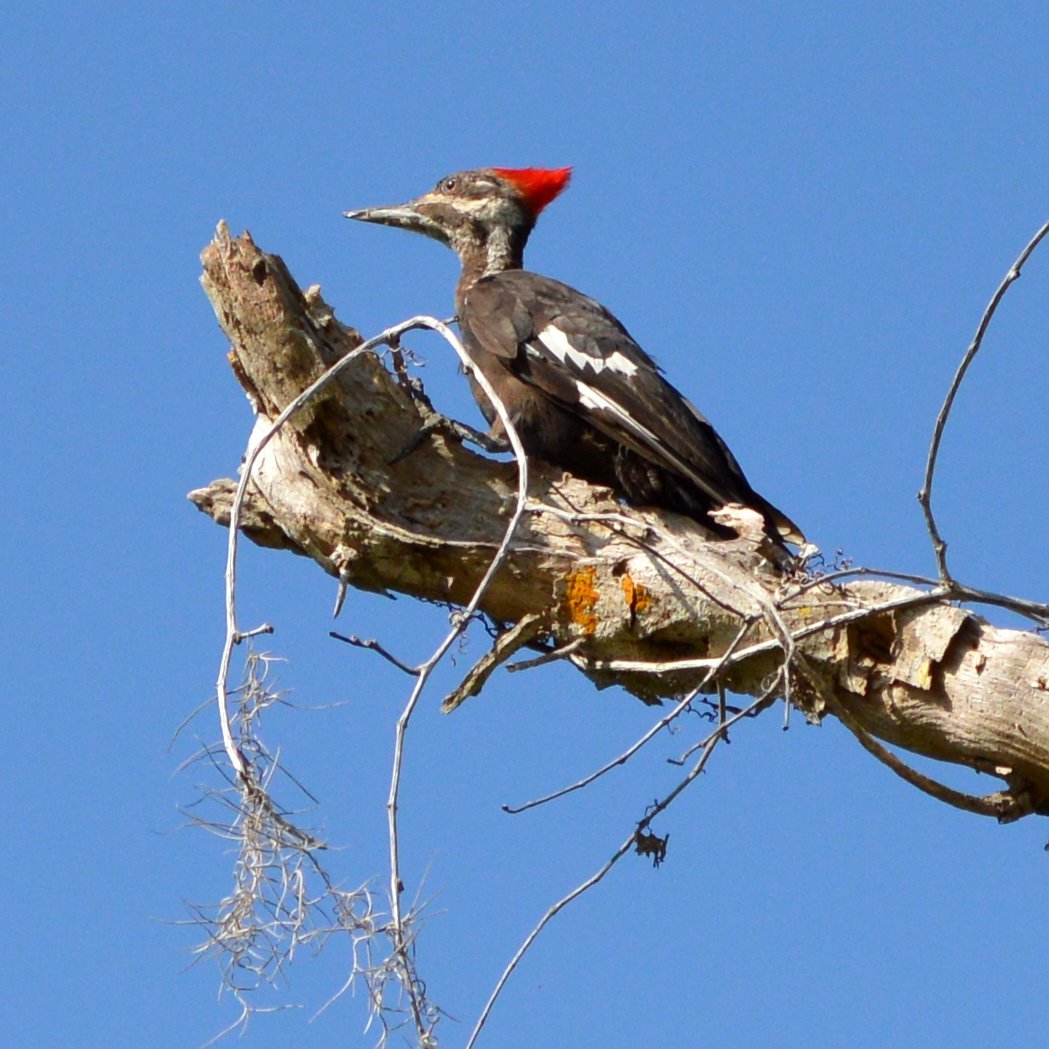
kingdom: Animalia
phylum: Chordata
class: Aves
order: Piciformes
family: Picidae
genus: Dryocopus
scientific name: Dryocopus pileatus
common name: Pileated woodpecker
